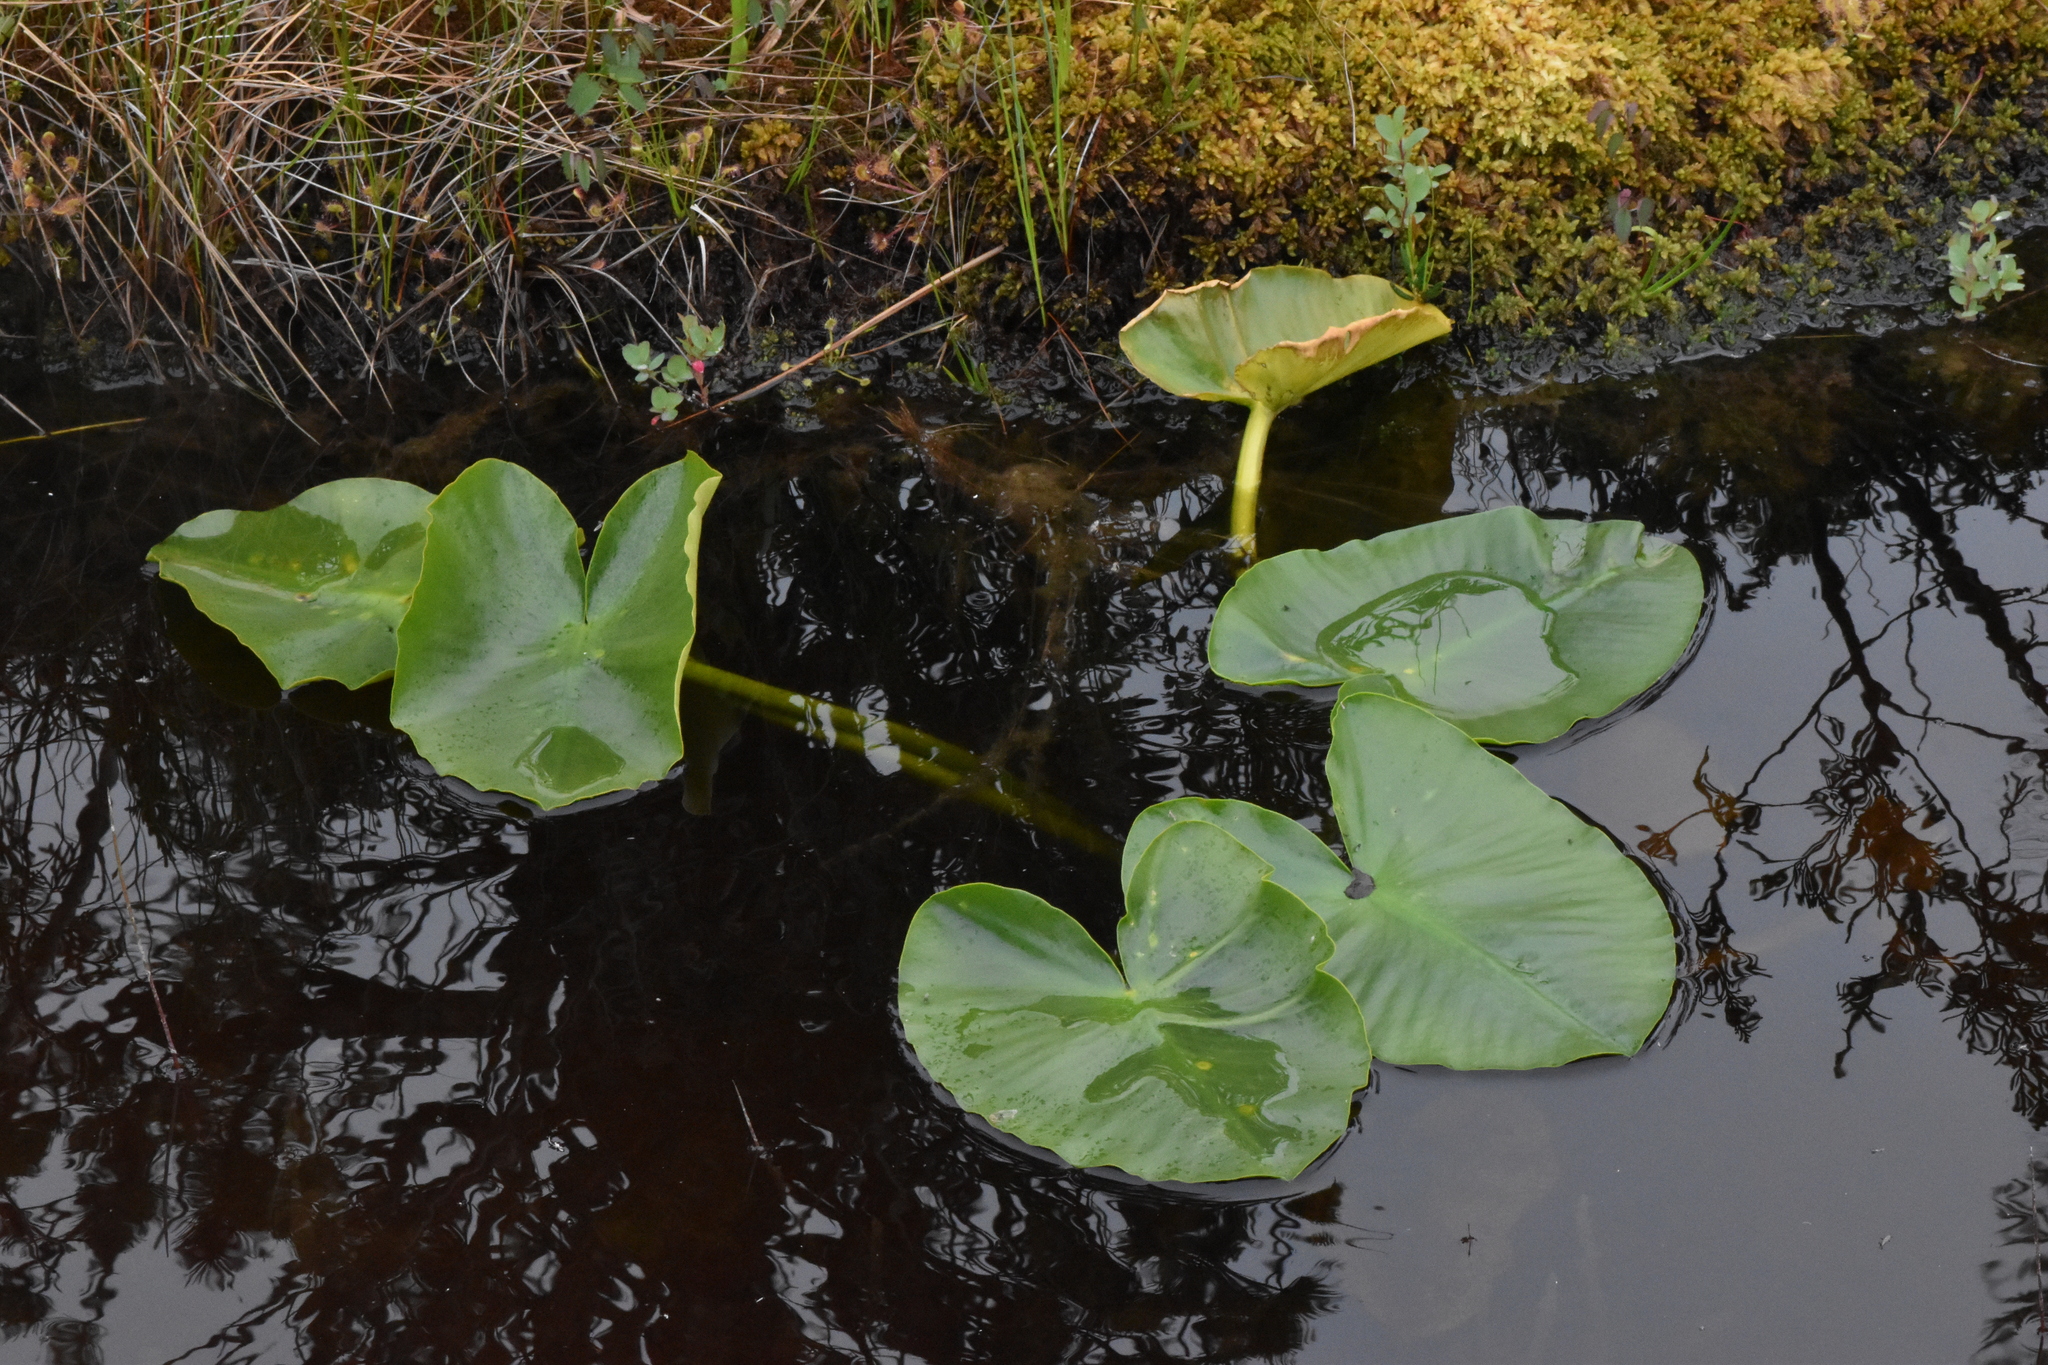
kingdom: Plantae
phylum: Tracheophyta
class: Magnoliopsida
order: Nymphaeales
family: Nymphaeaceae
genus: Nuphar
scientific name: Nuphar polysepala
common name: Rocky mountain cow-lily
